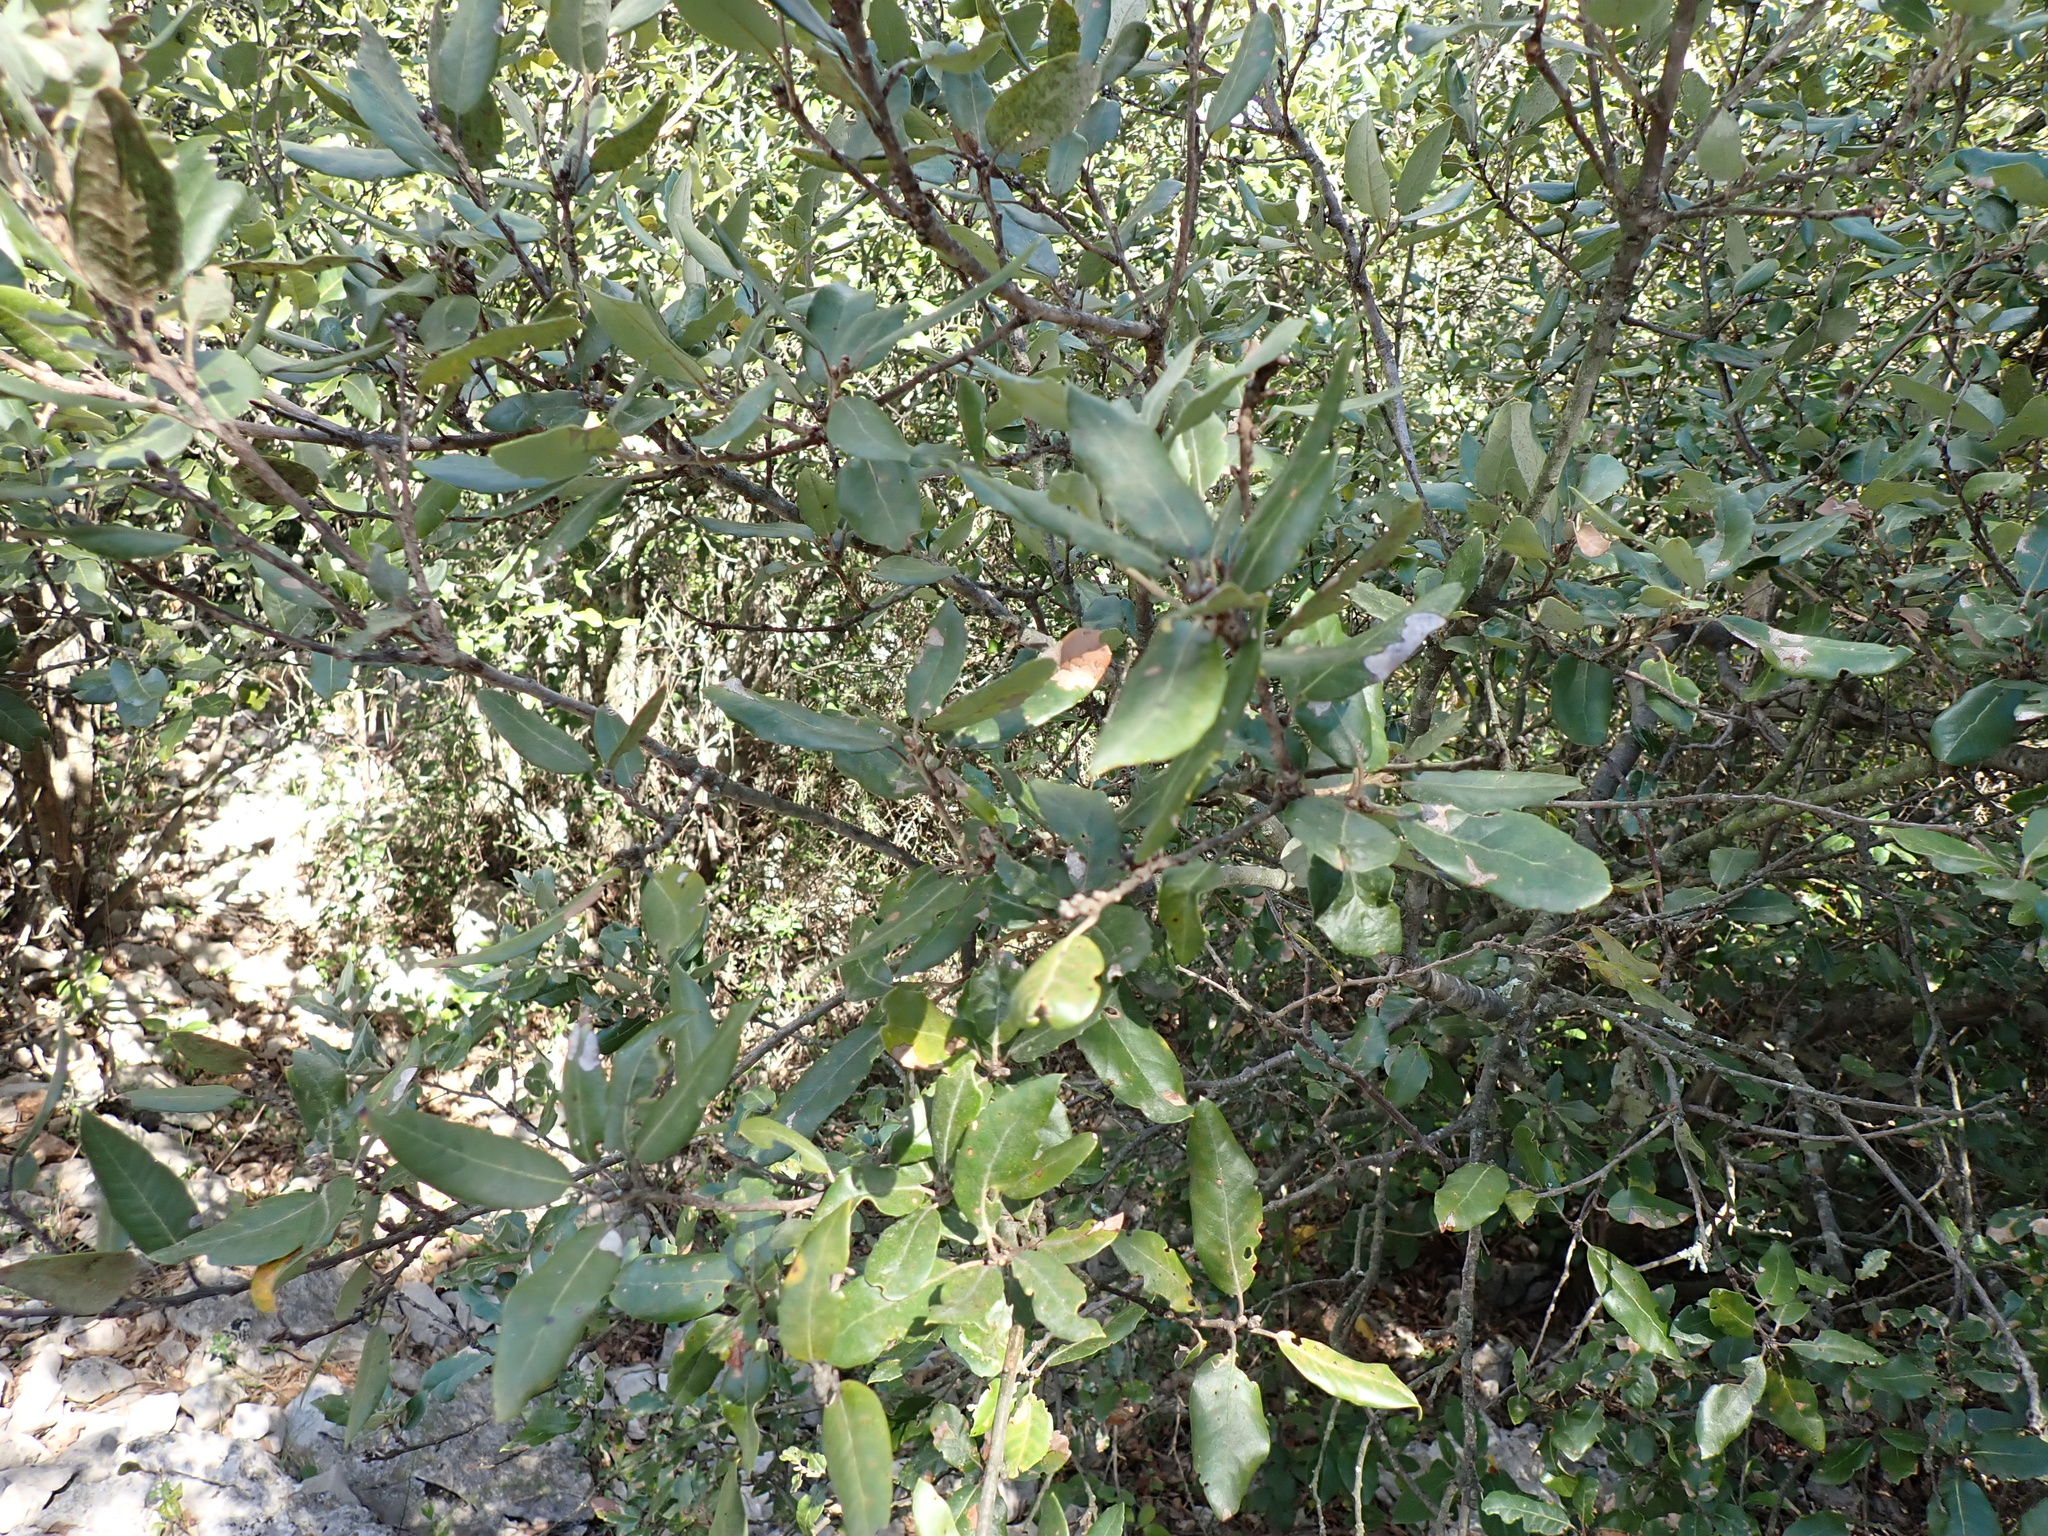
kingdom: Plantae
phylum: Tracheophyta
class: Magnoliopsida
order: Fagales
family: Fagaceae
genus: Quercus
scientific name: Quercus ilex
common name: Evergreen oak
